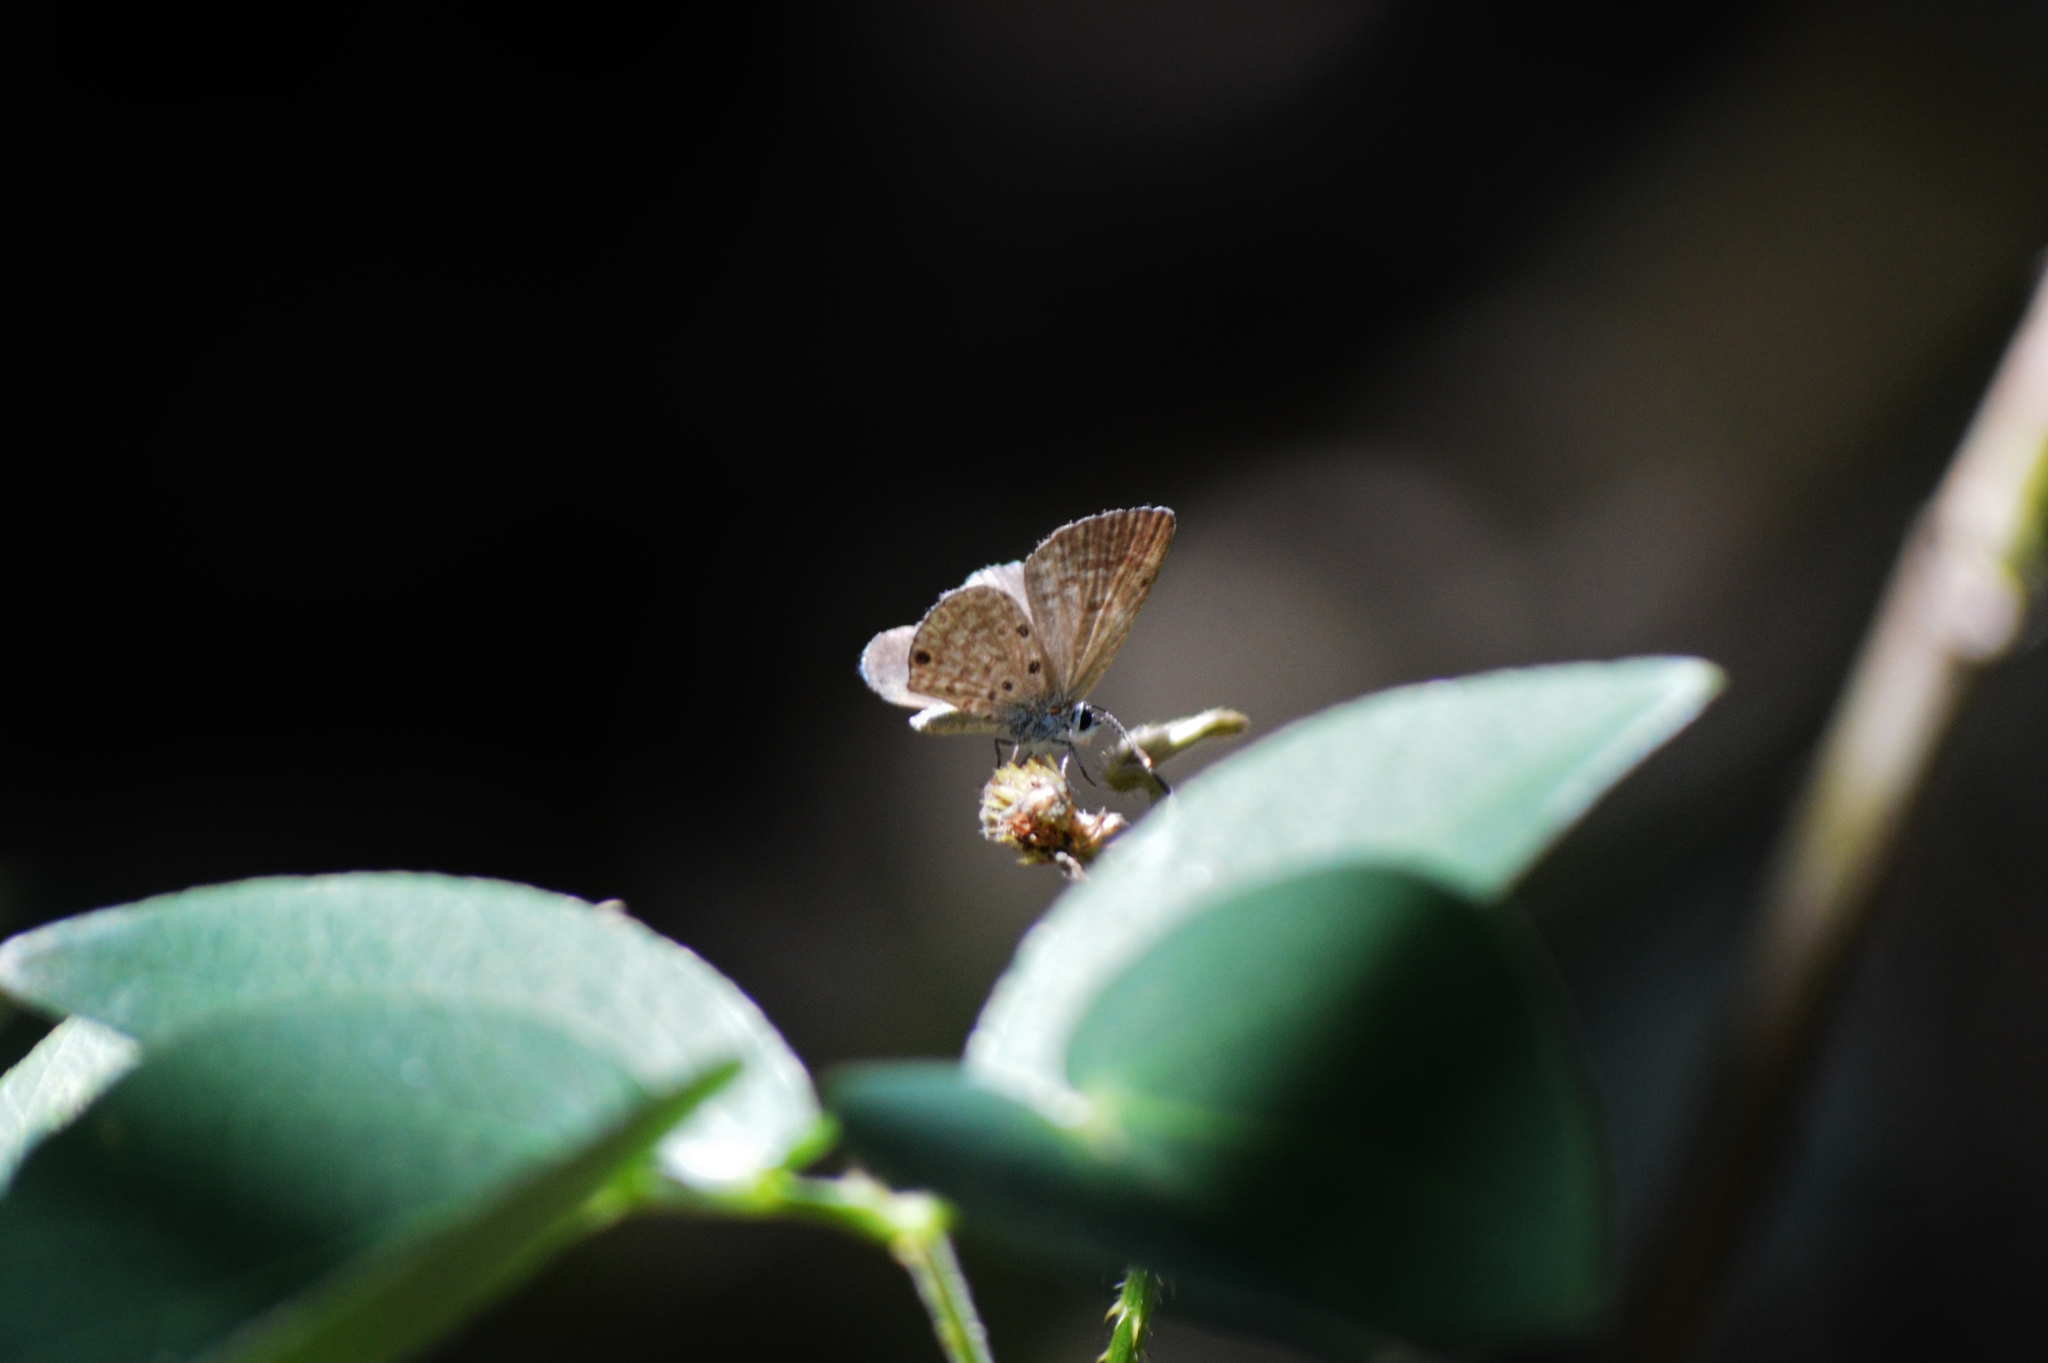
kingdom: Animalia
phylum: Arthropoda
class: Insecta
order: Lepidoptera
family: Lycaenidae
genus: Leptotes
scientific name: Leptotes cassius
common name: Cassius blue
